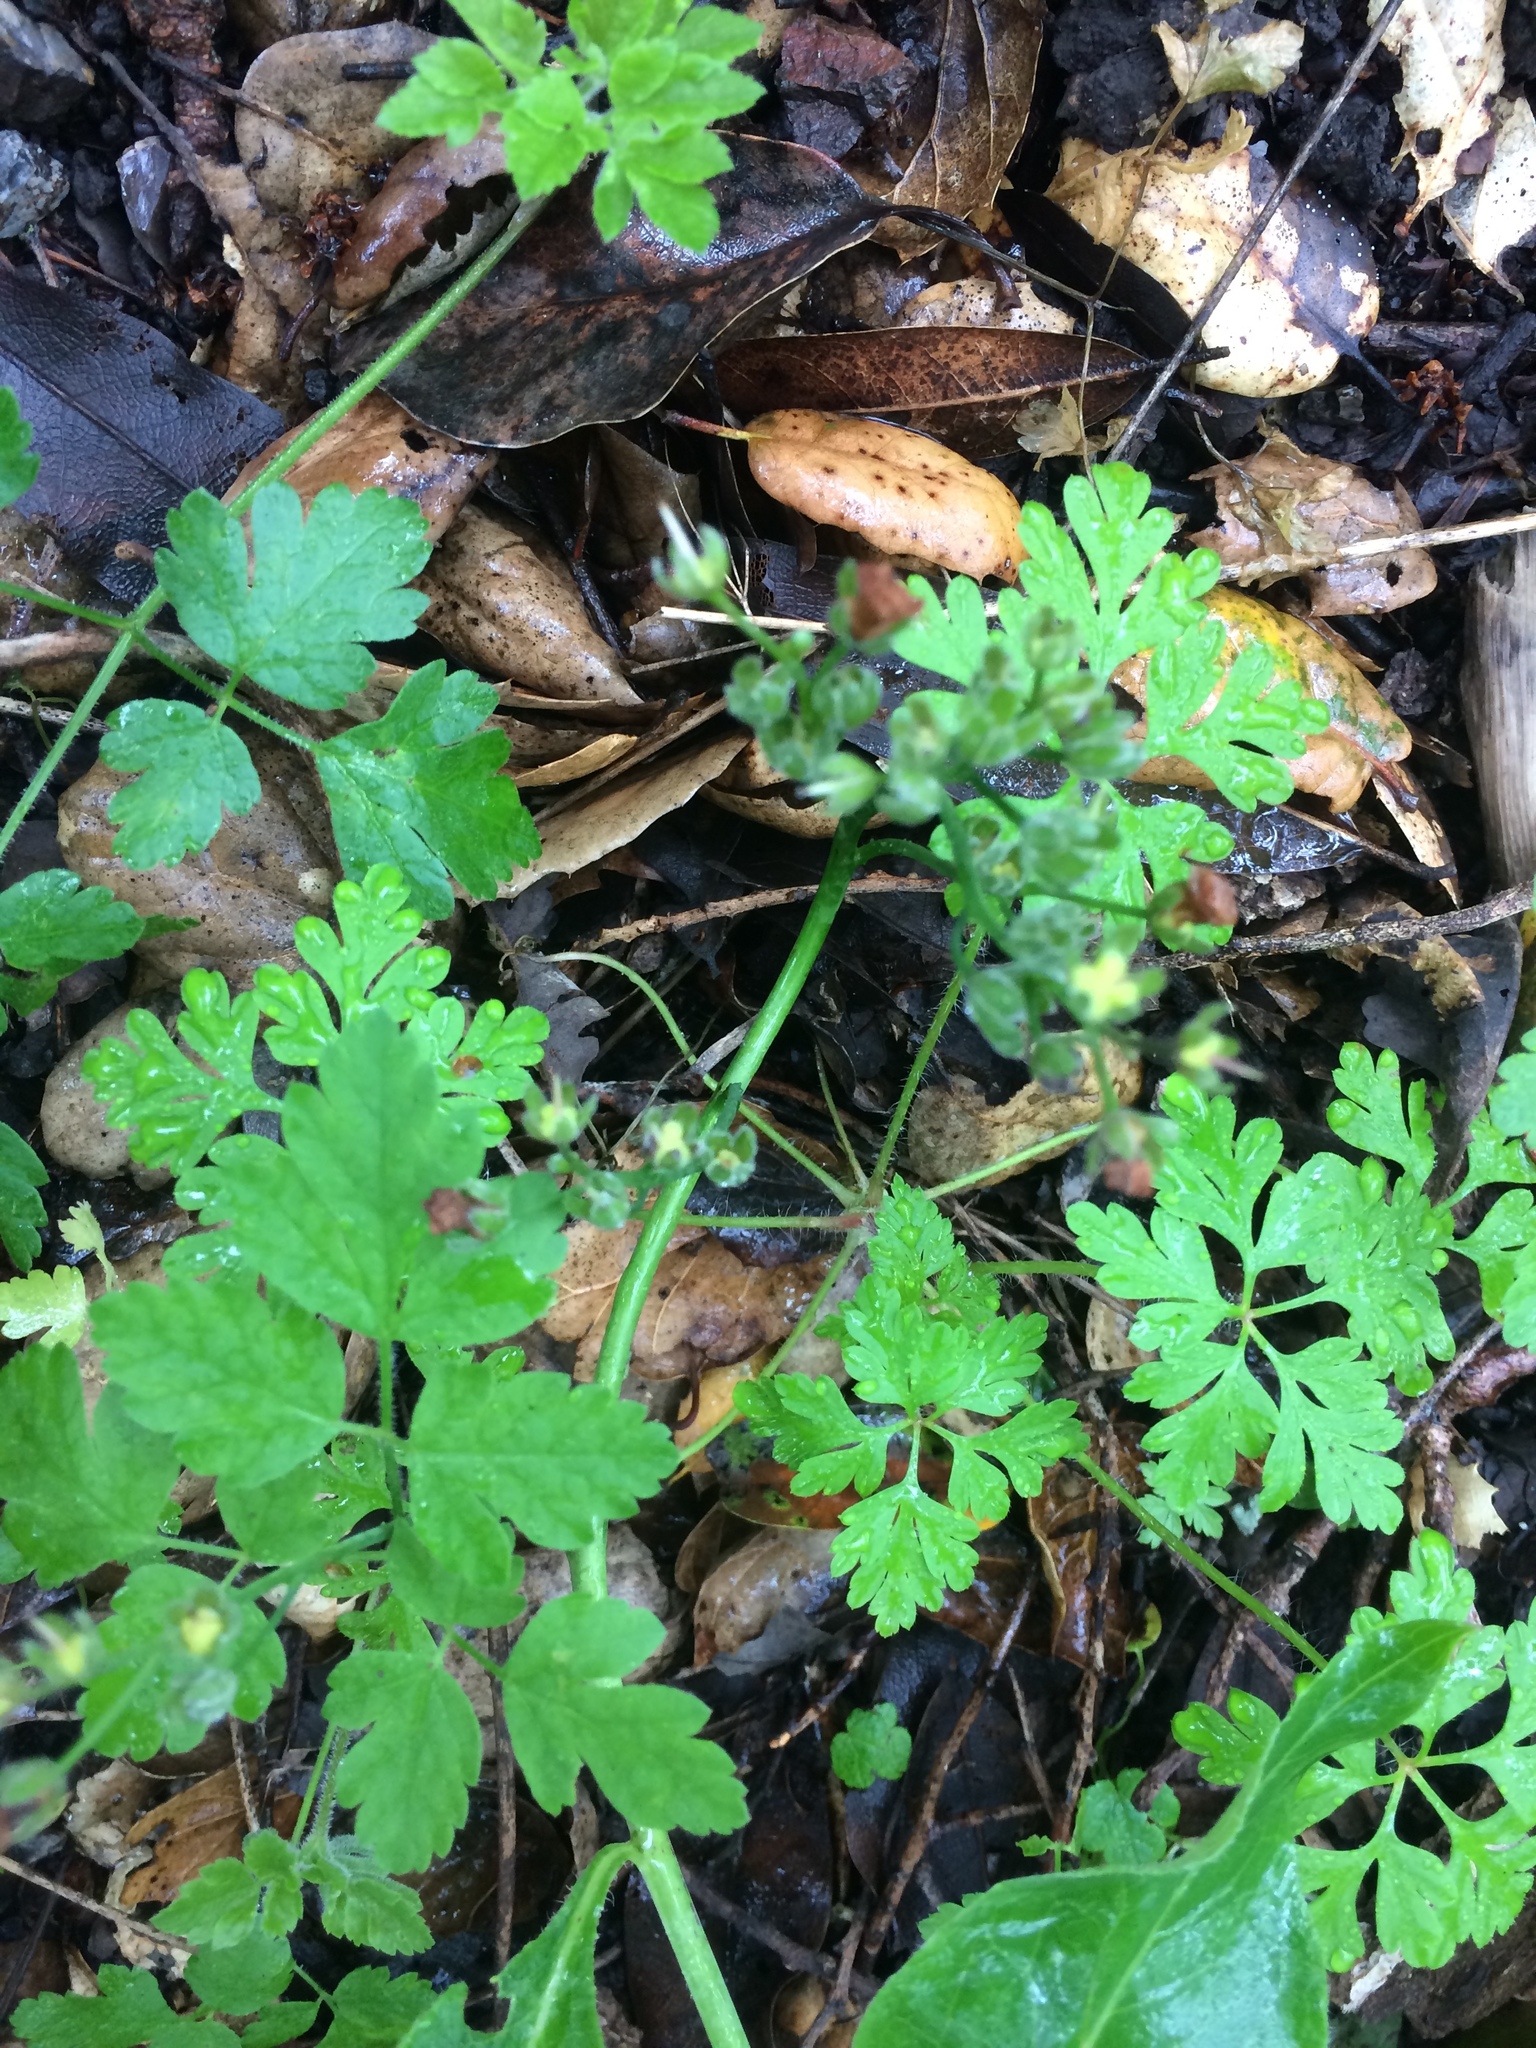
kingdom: Plantae
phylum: Tracheophyta
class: Magnoliopsida
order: Boraginales
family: Boraginaceae
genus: Adelinia
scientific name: Adelinia grande
